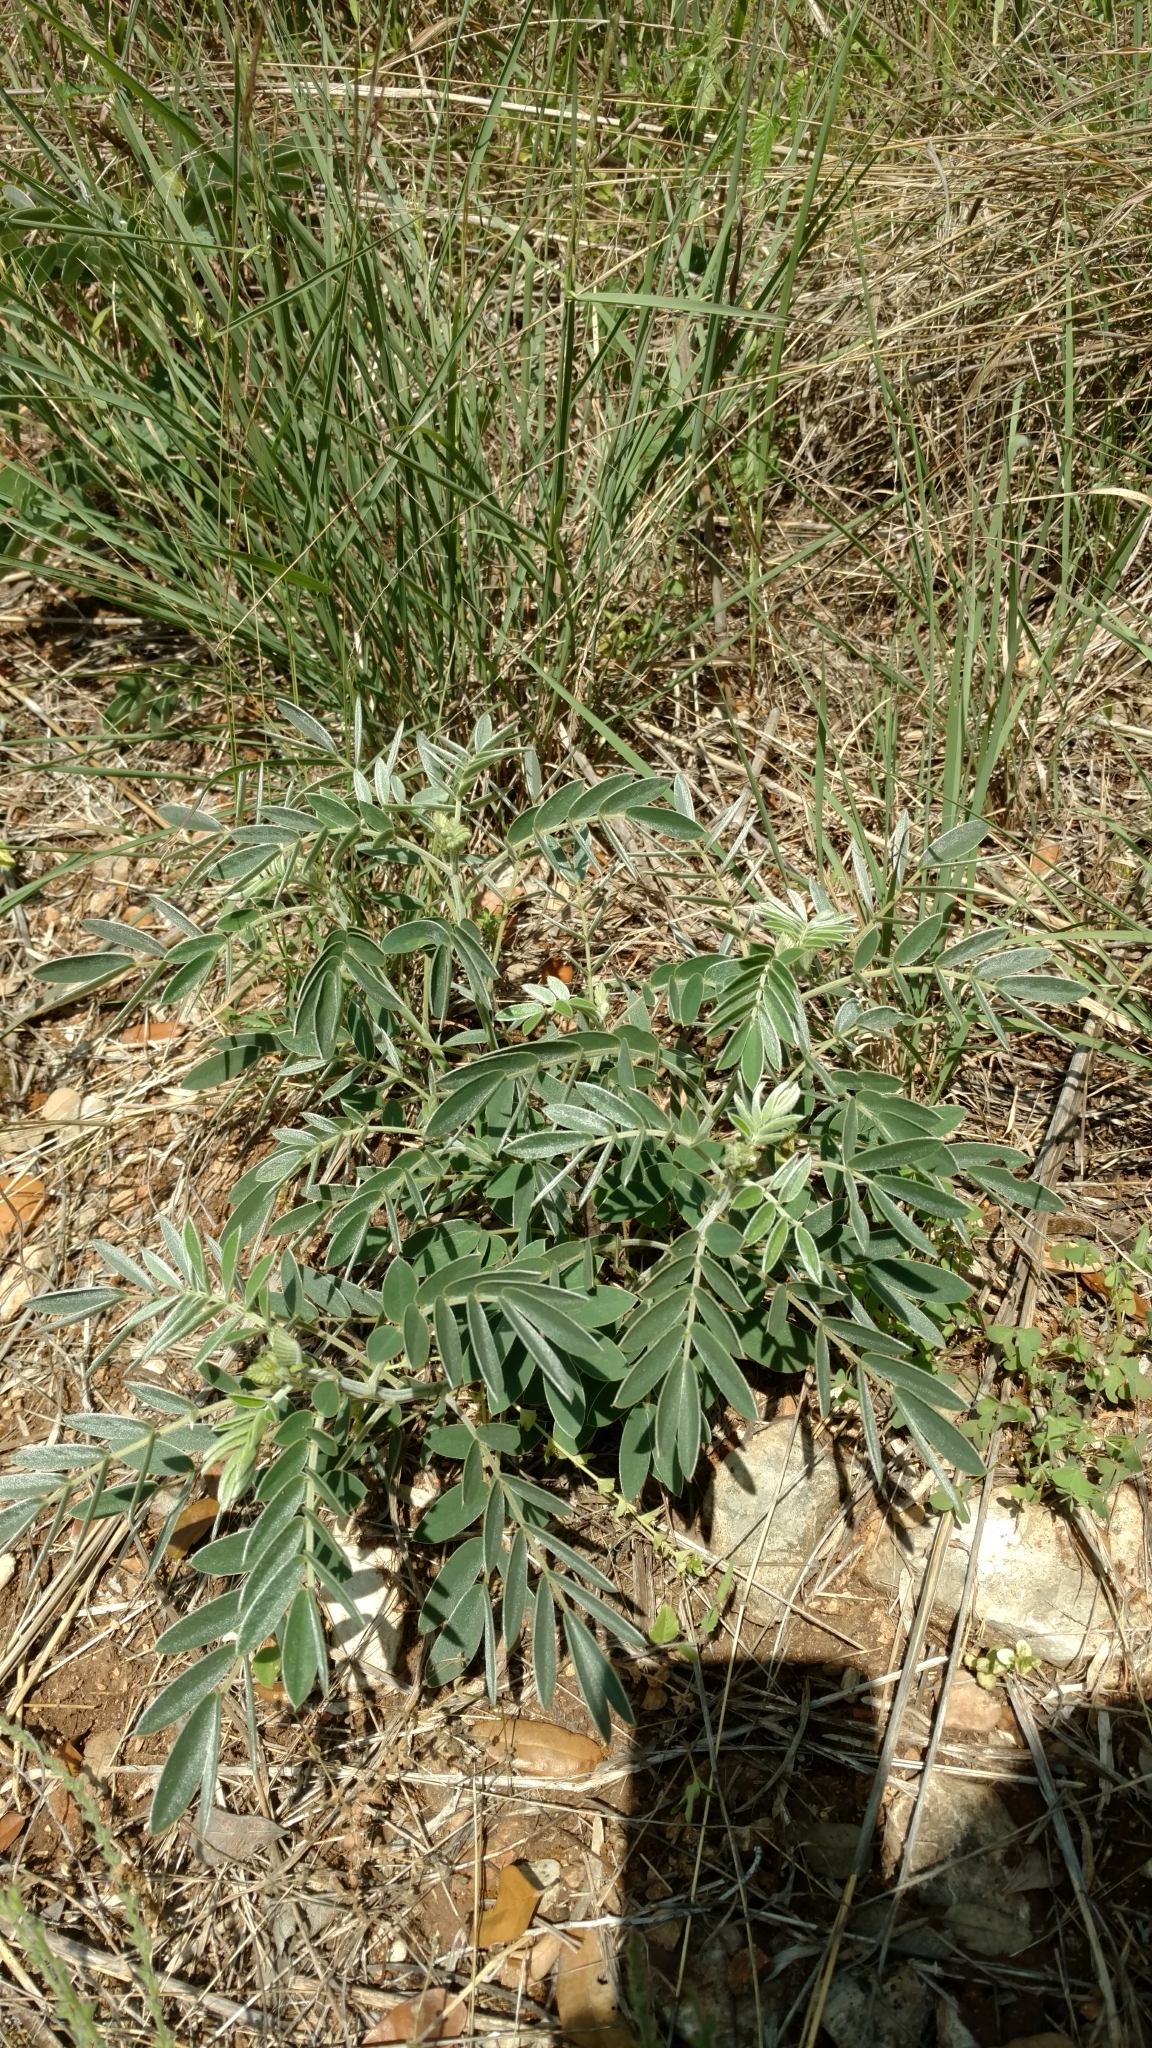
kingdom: Plantae
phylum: Tracheophyta
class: Magnoliopsida
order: Fabales
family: Fabaceae
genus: Senna
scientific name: Senna lindheimeriana
